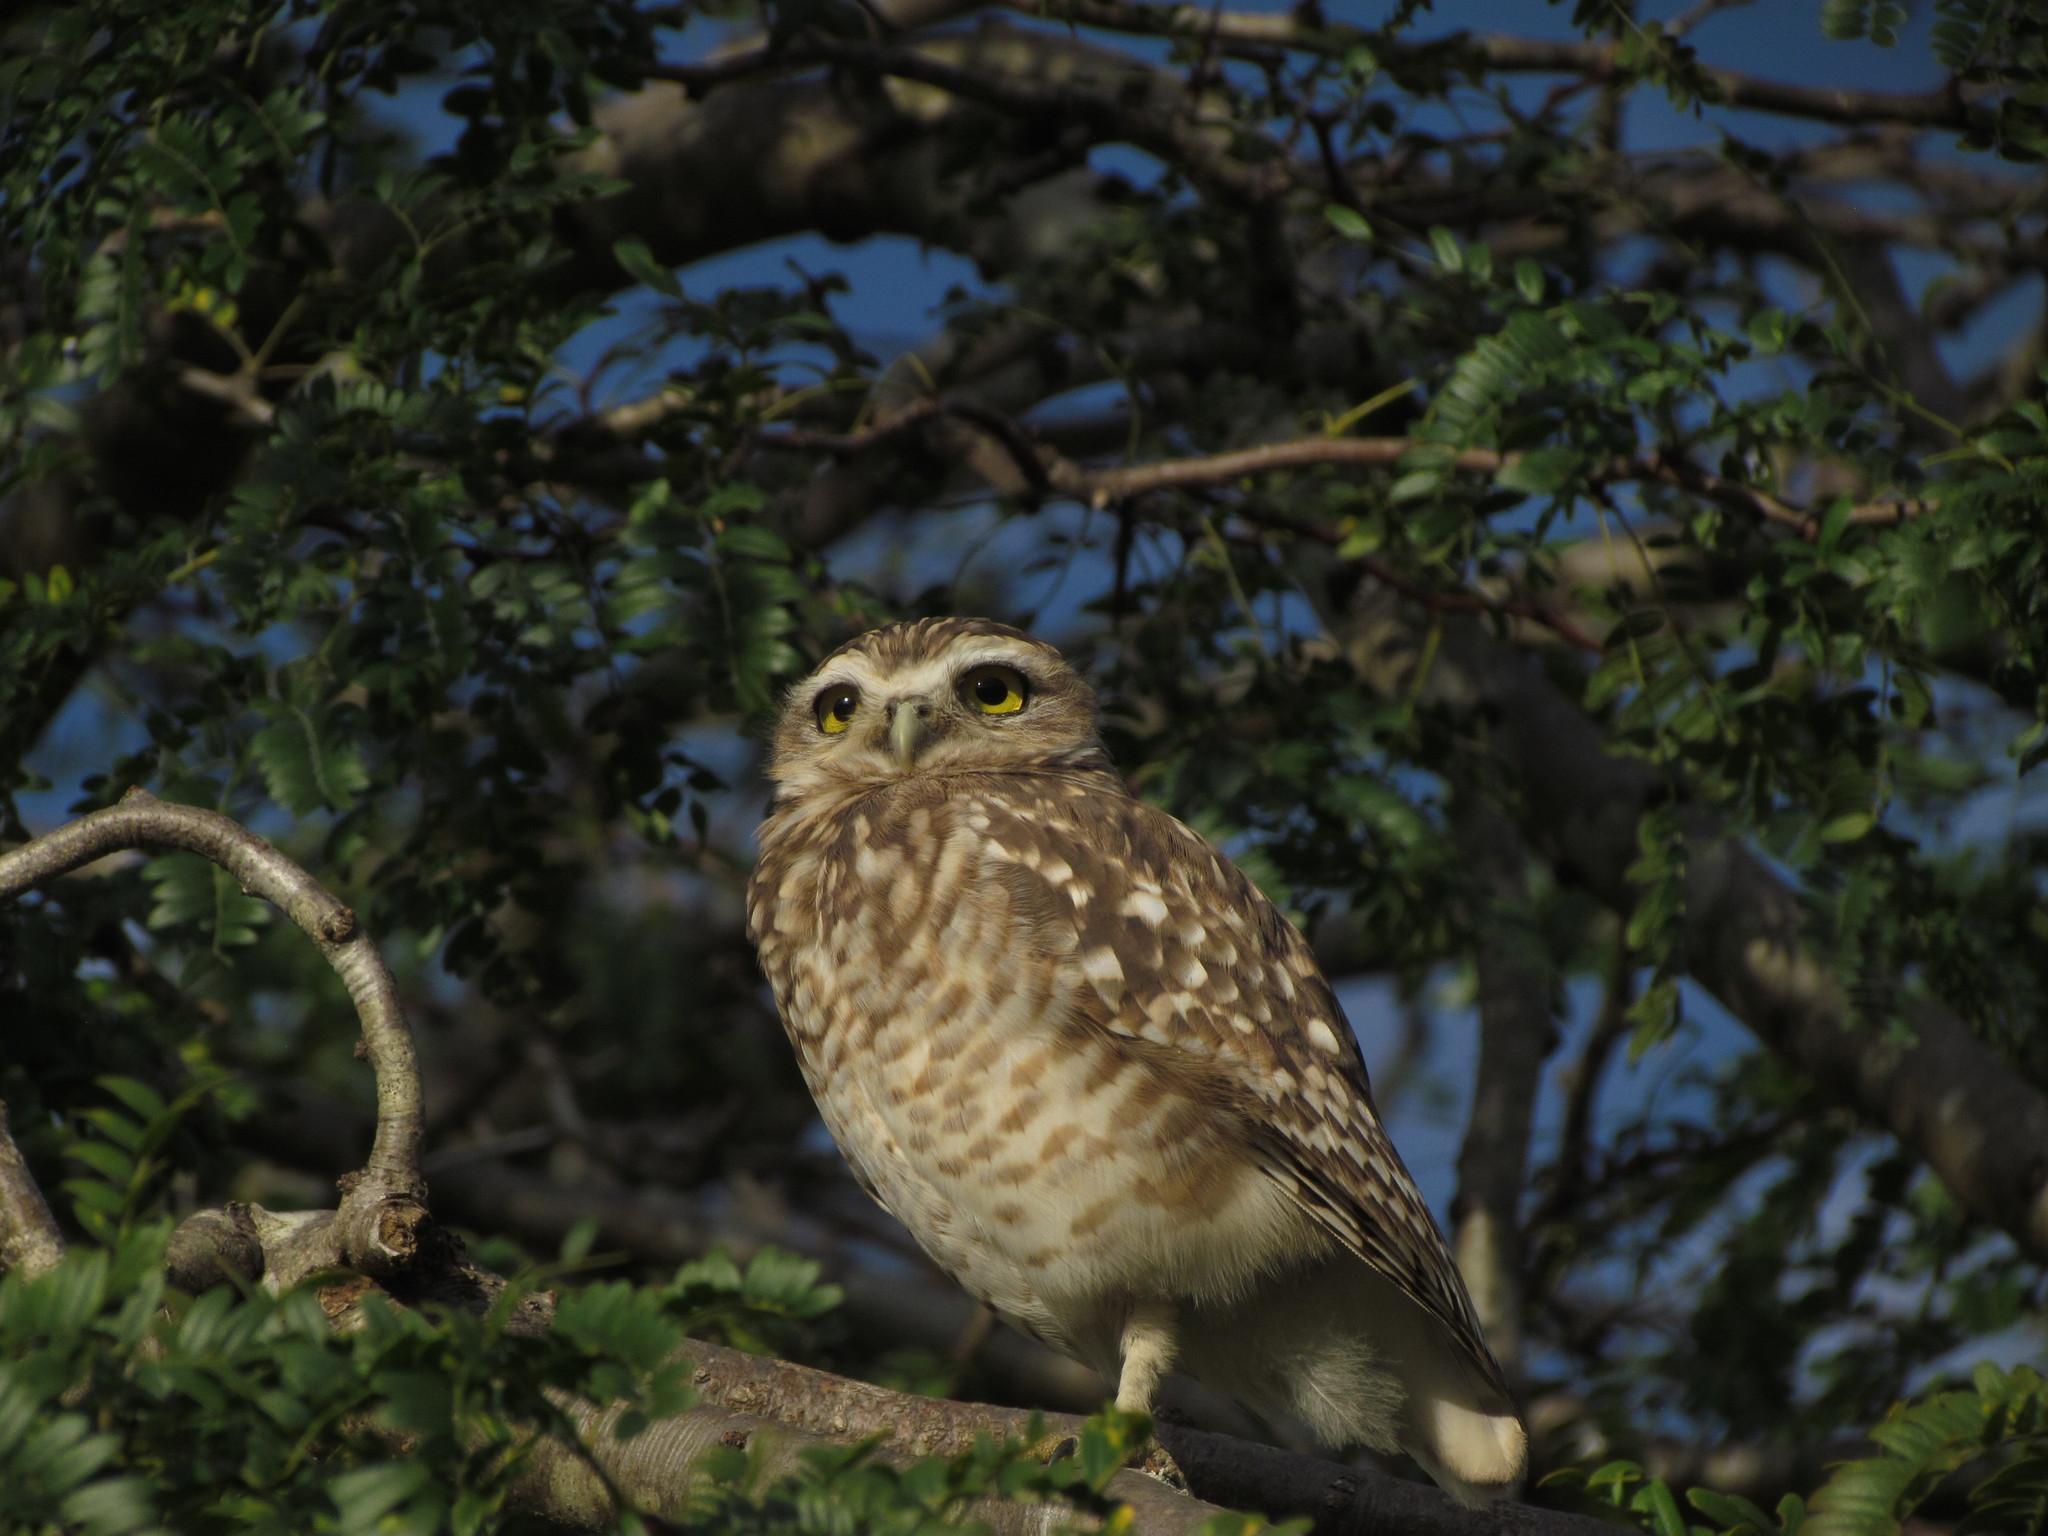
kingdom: Animalia
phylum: Chordata
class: Aves
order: Strigiformes
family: Strigidae
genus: Athene
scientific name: Athene cunicularia
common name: Burrowing owl
